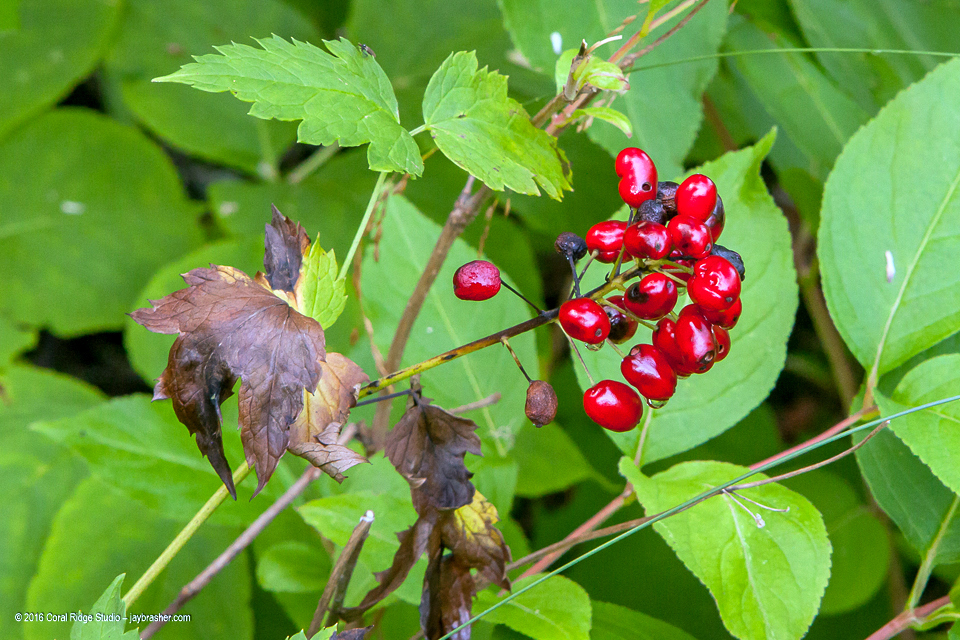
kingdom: Plantae
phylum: Tracheophyta
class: Magnoliopsida
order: Ranunculales
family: Ranunculaceae
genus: Actaea
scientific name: Actaea rubra
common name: Red baneberry
